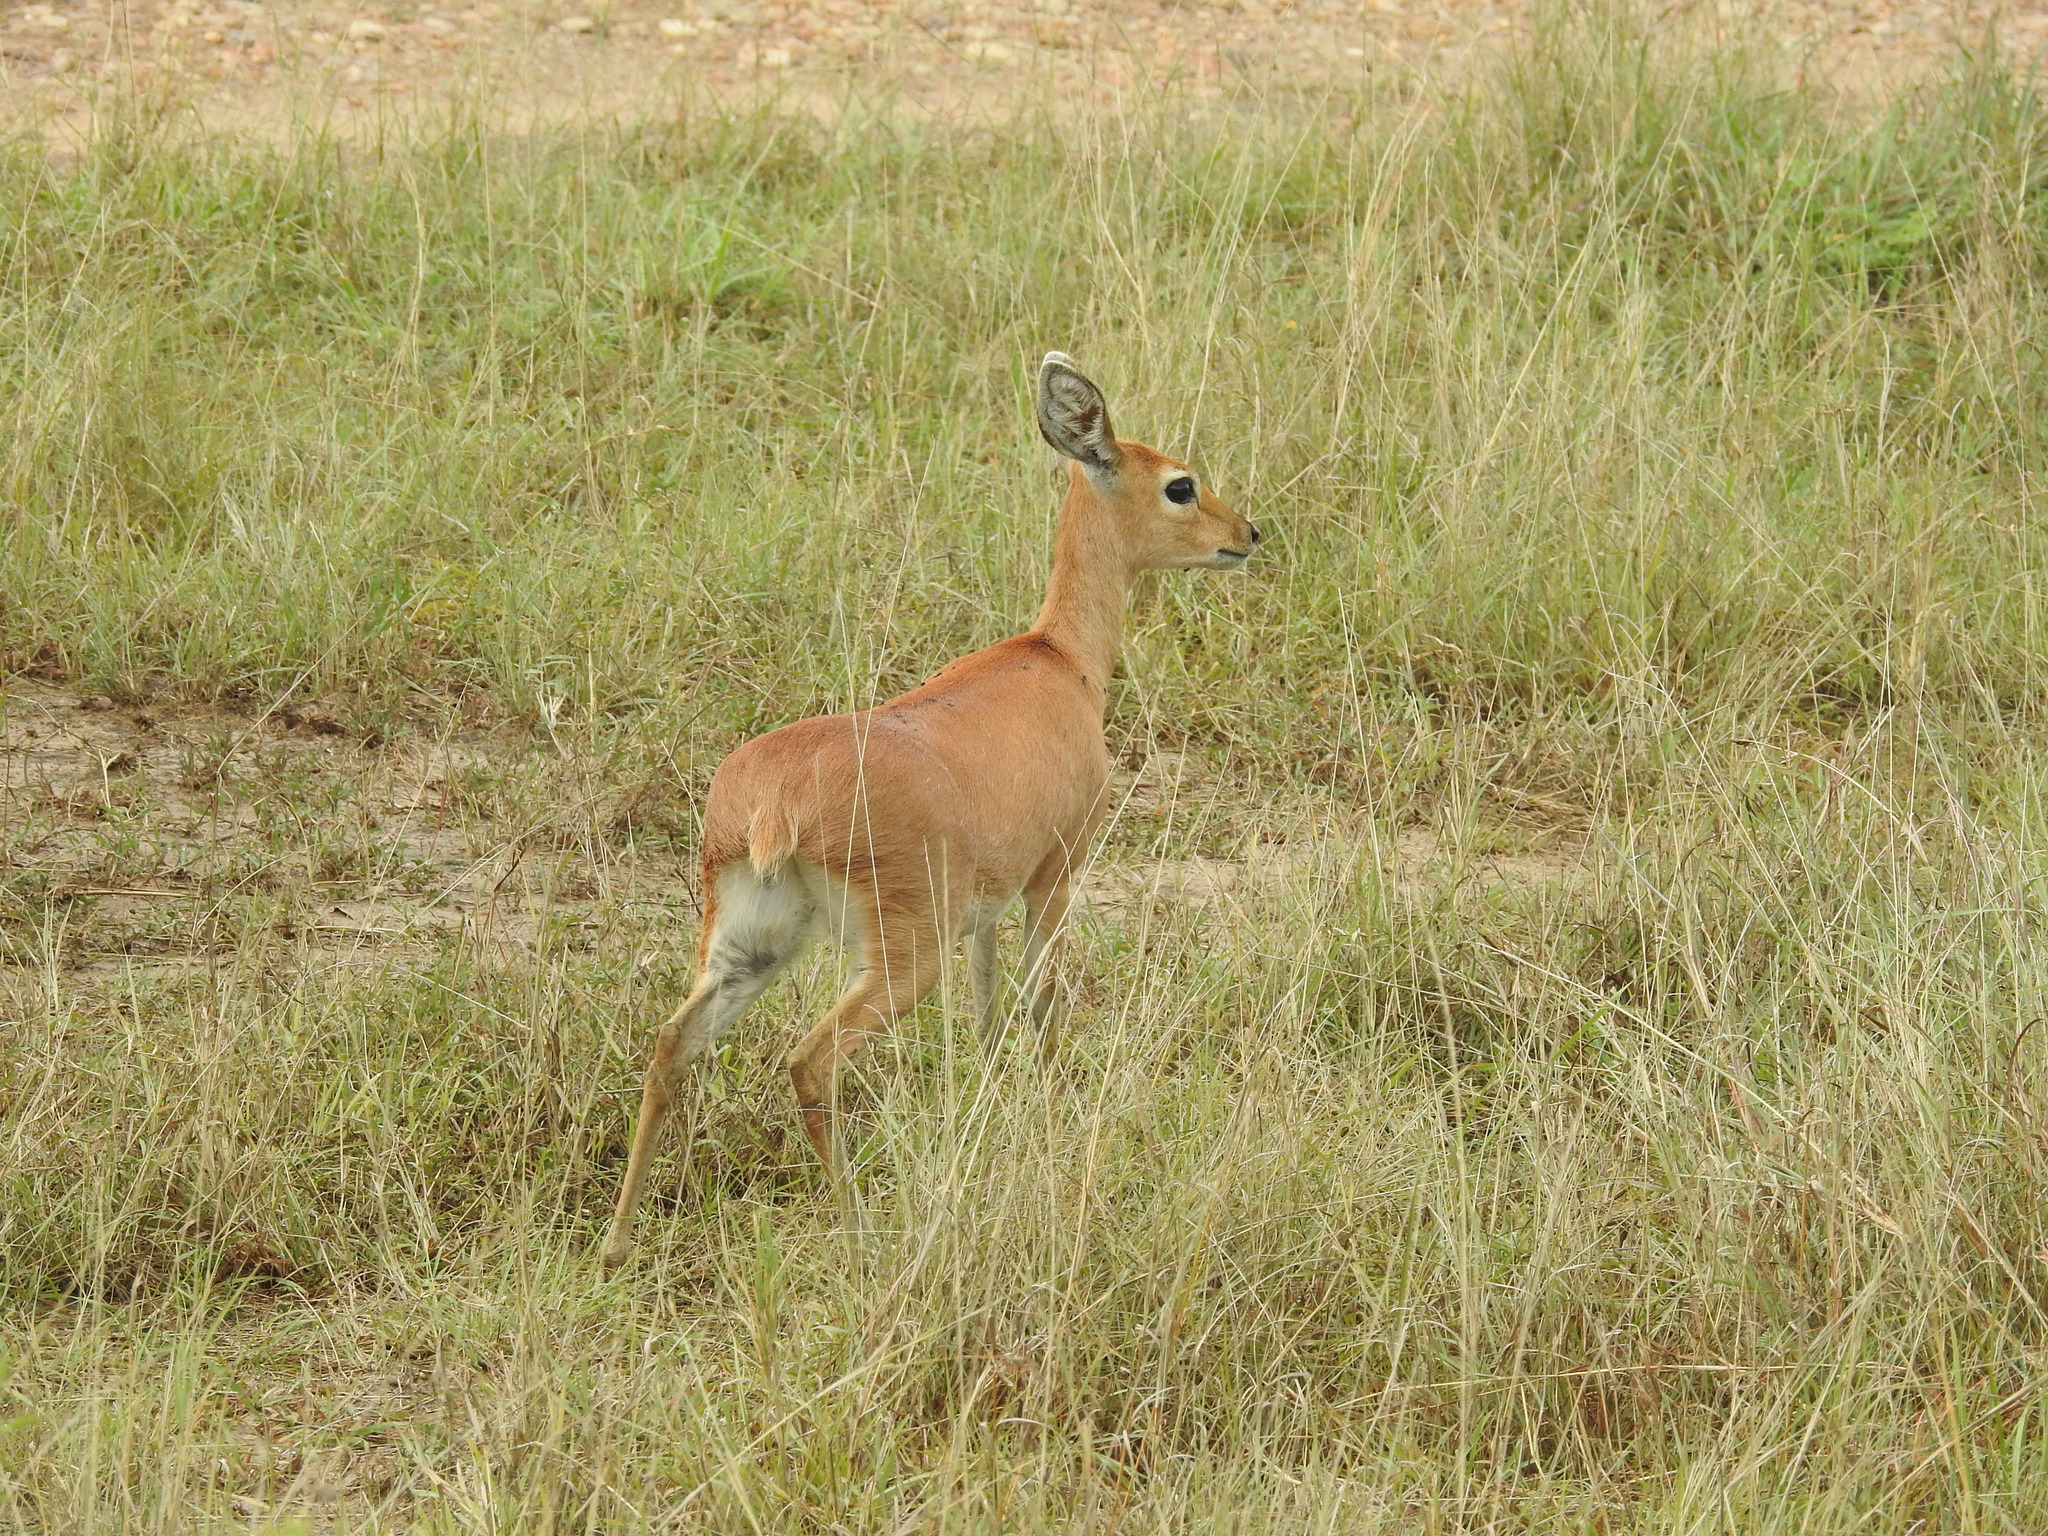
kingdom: Animalia
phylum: Chordata
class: Mammalia
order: Artiodactyla
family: Bovidae
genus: Raphicerus
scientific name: Raphicerus campestris
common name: Steenbok
